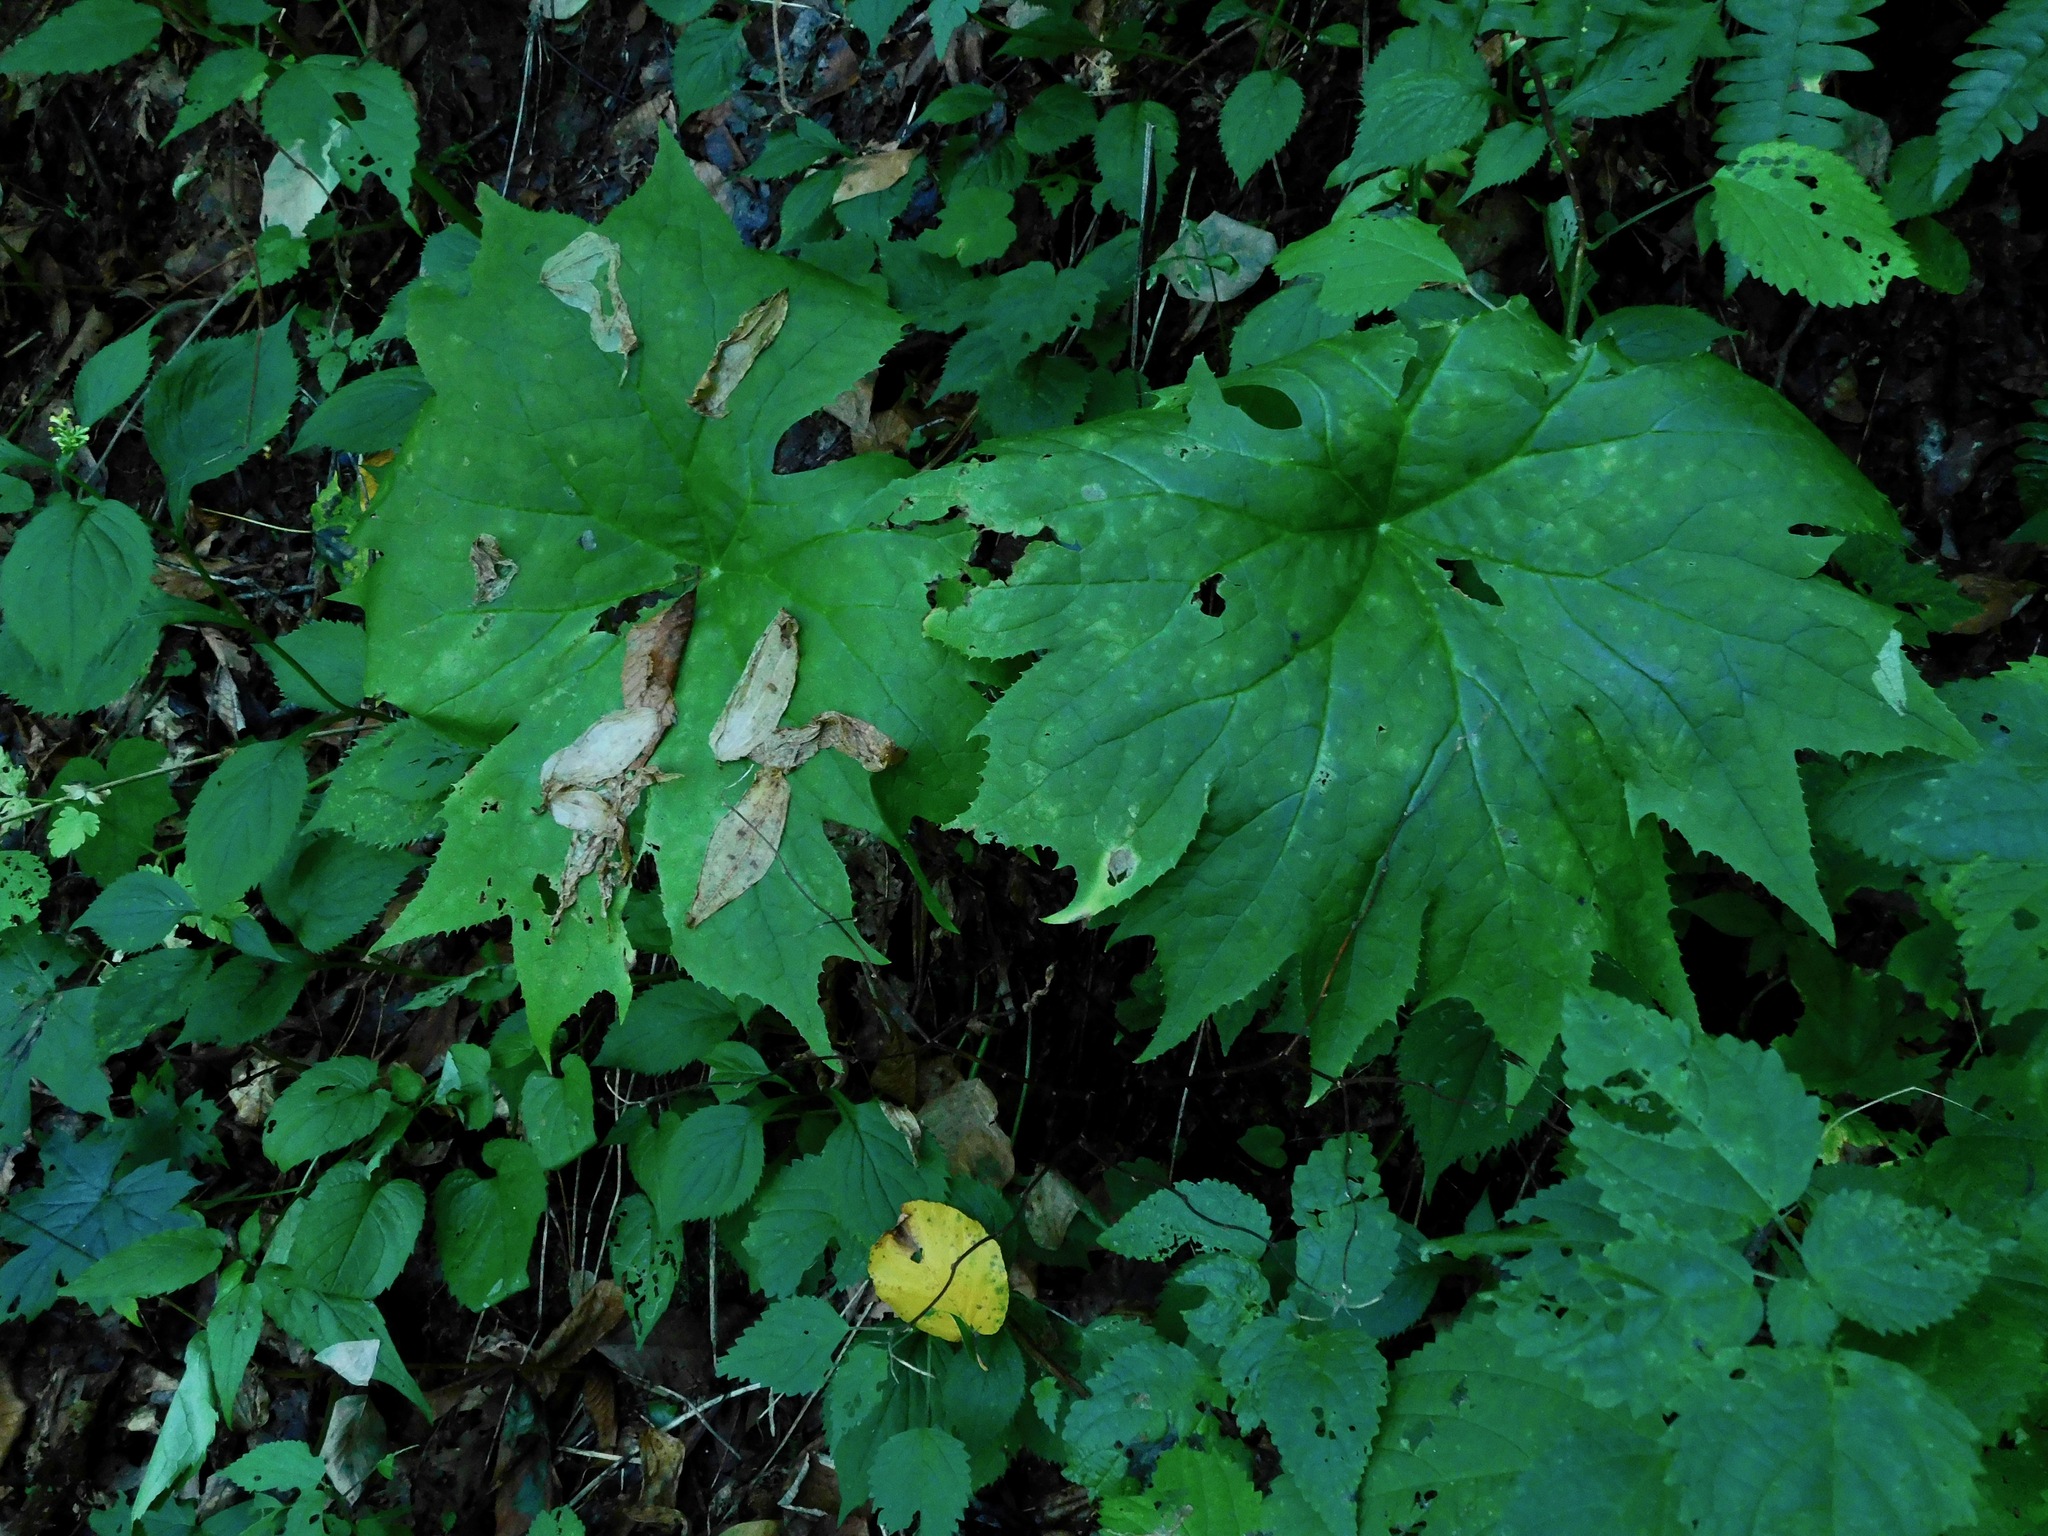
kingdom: Plantae
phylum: Tracheophyta
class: Magnoliopsida
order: Ranunculales
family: Berberidaceae
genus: Diphylleia
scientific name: Diphylleia cymosa
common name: Umbrella-leaf
